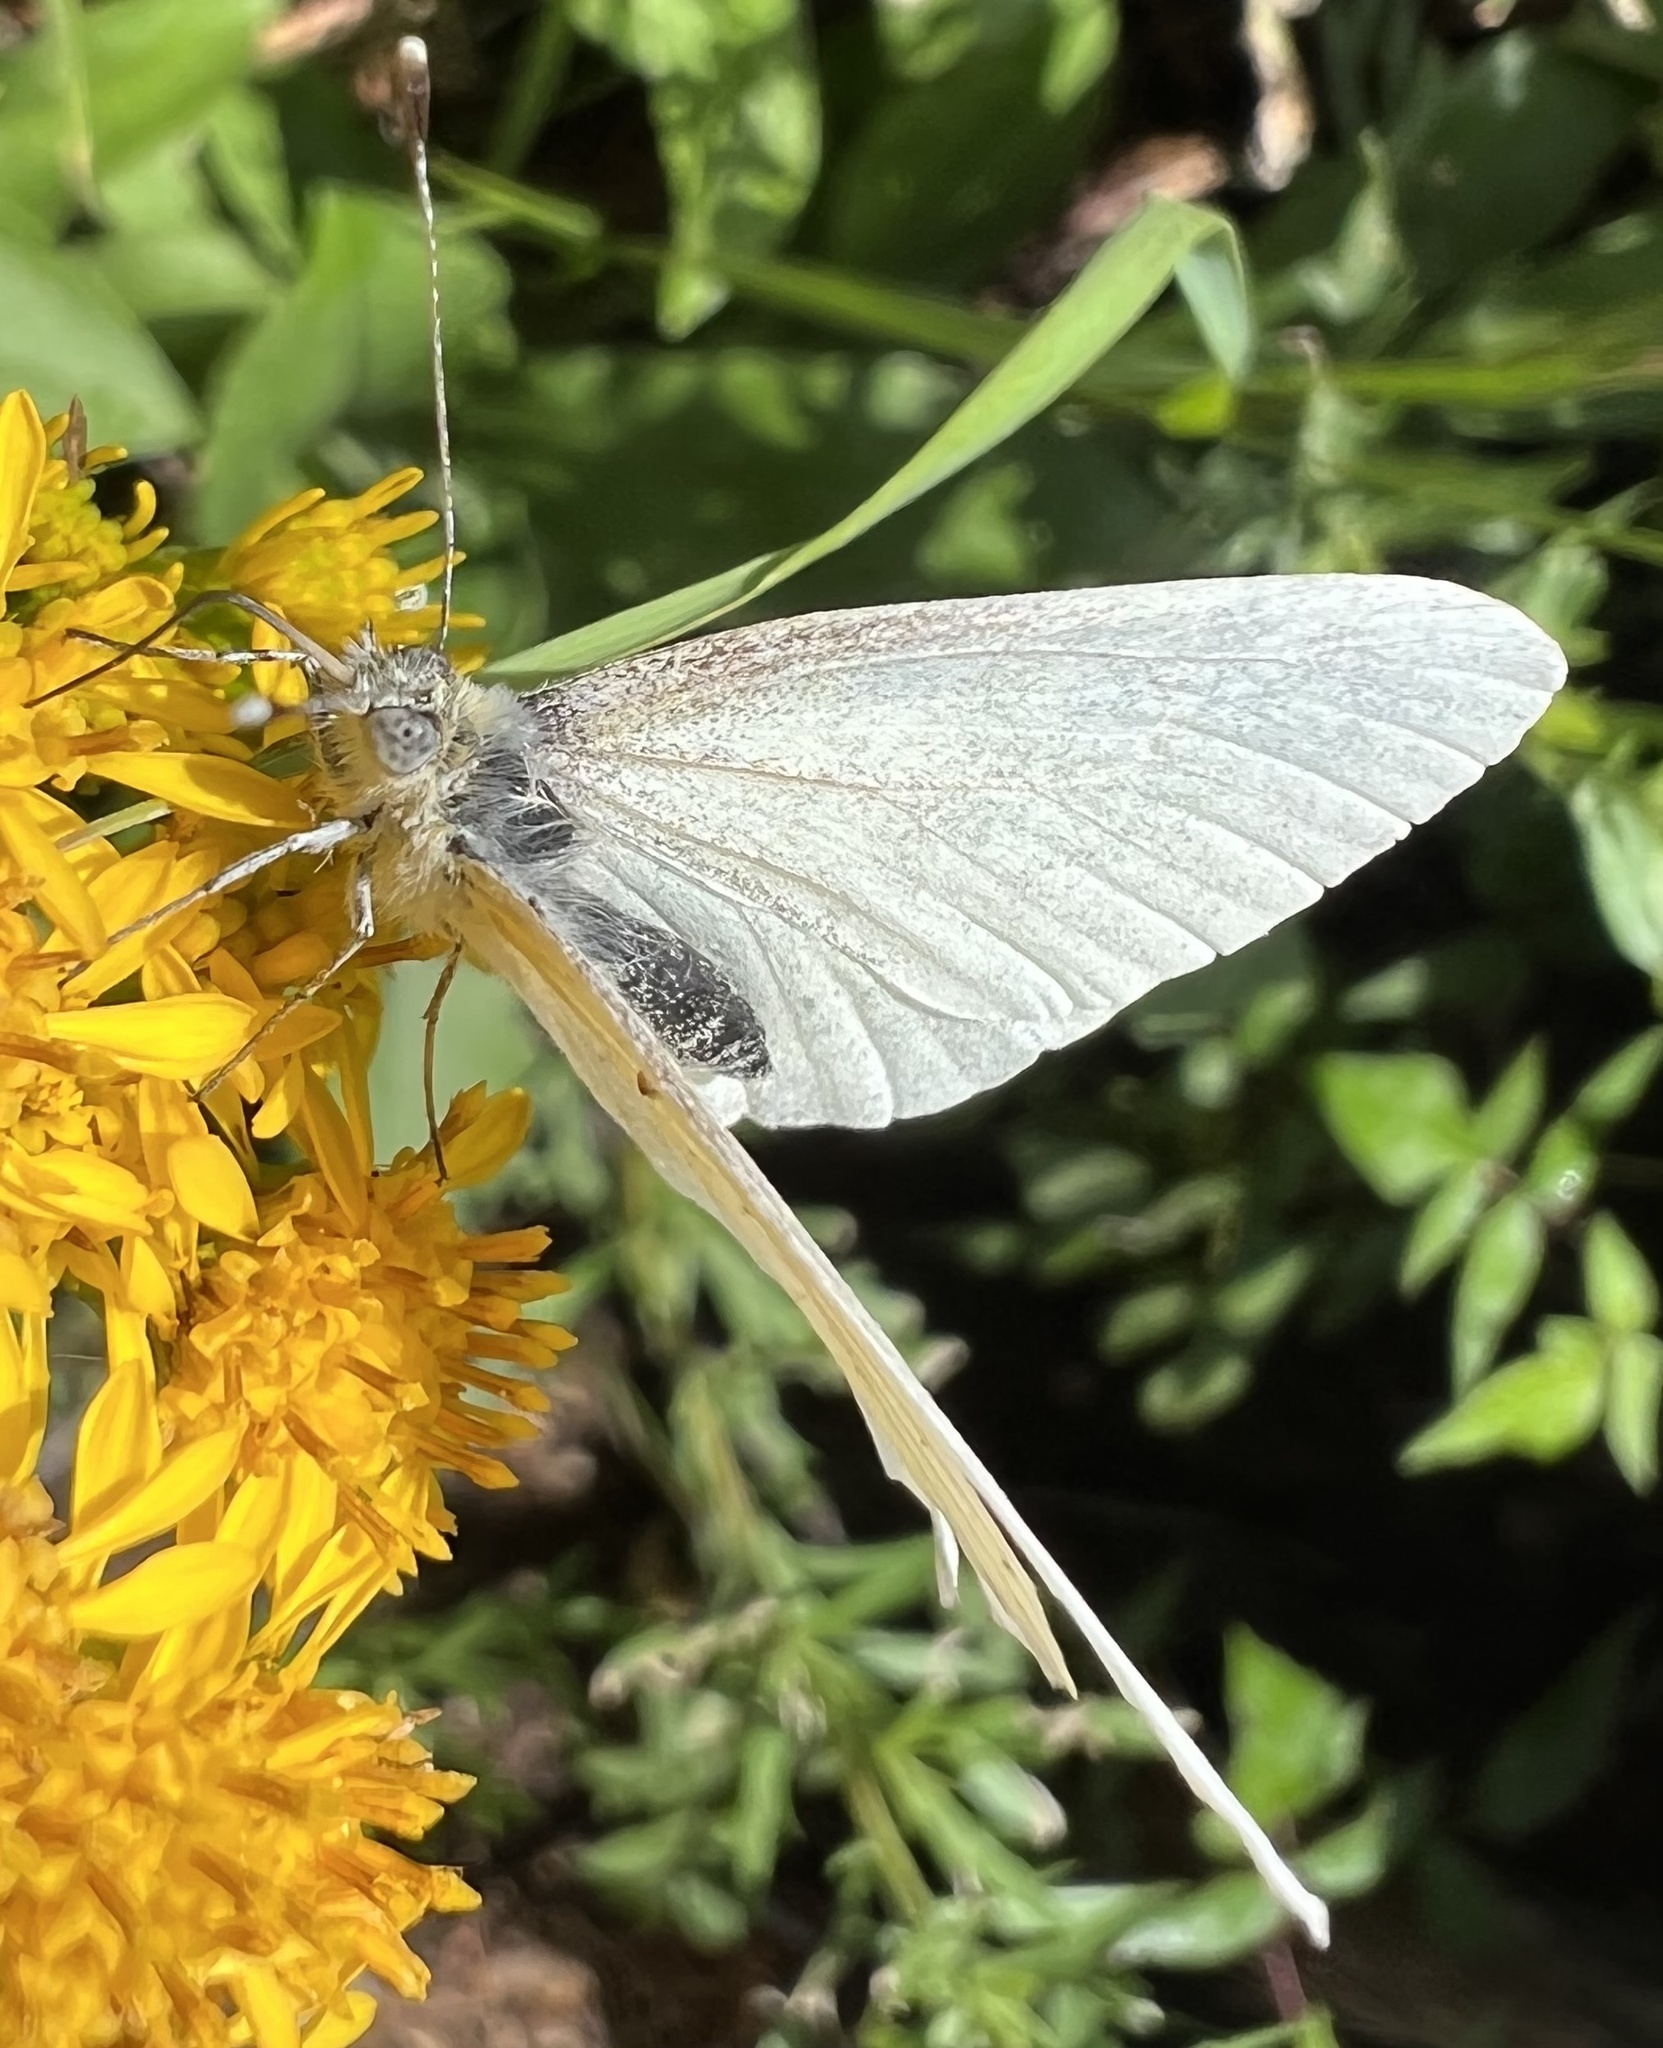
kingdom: Animalia
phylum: Arthropoda
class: Insecta
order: Lepidoptera
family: Pieridae
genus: Pieris
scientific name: Pieris marginalis
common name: Margined white
